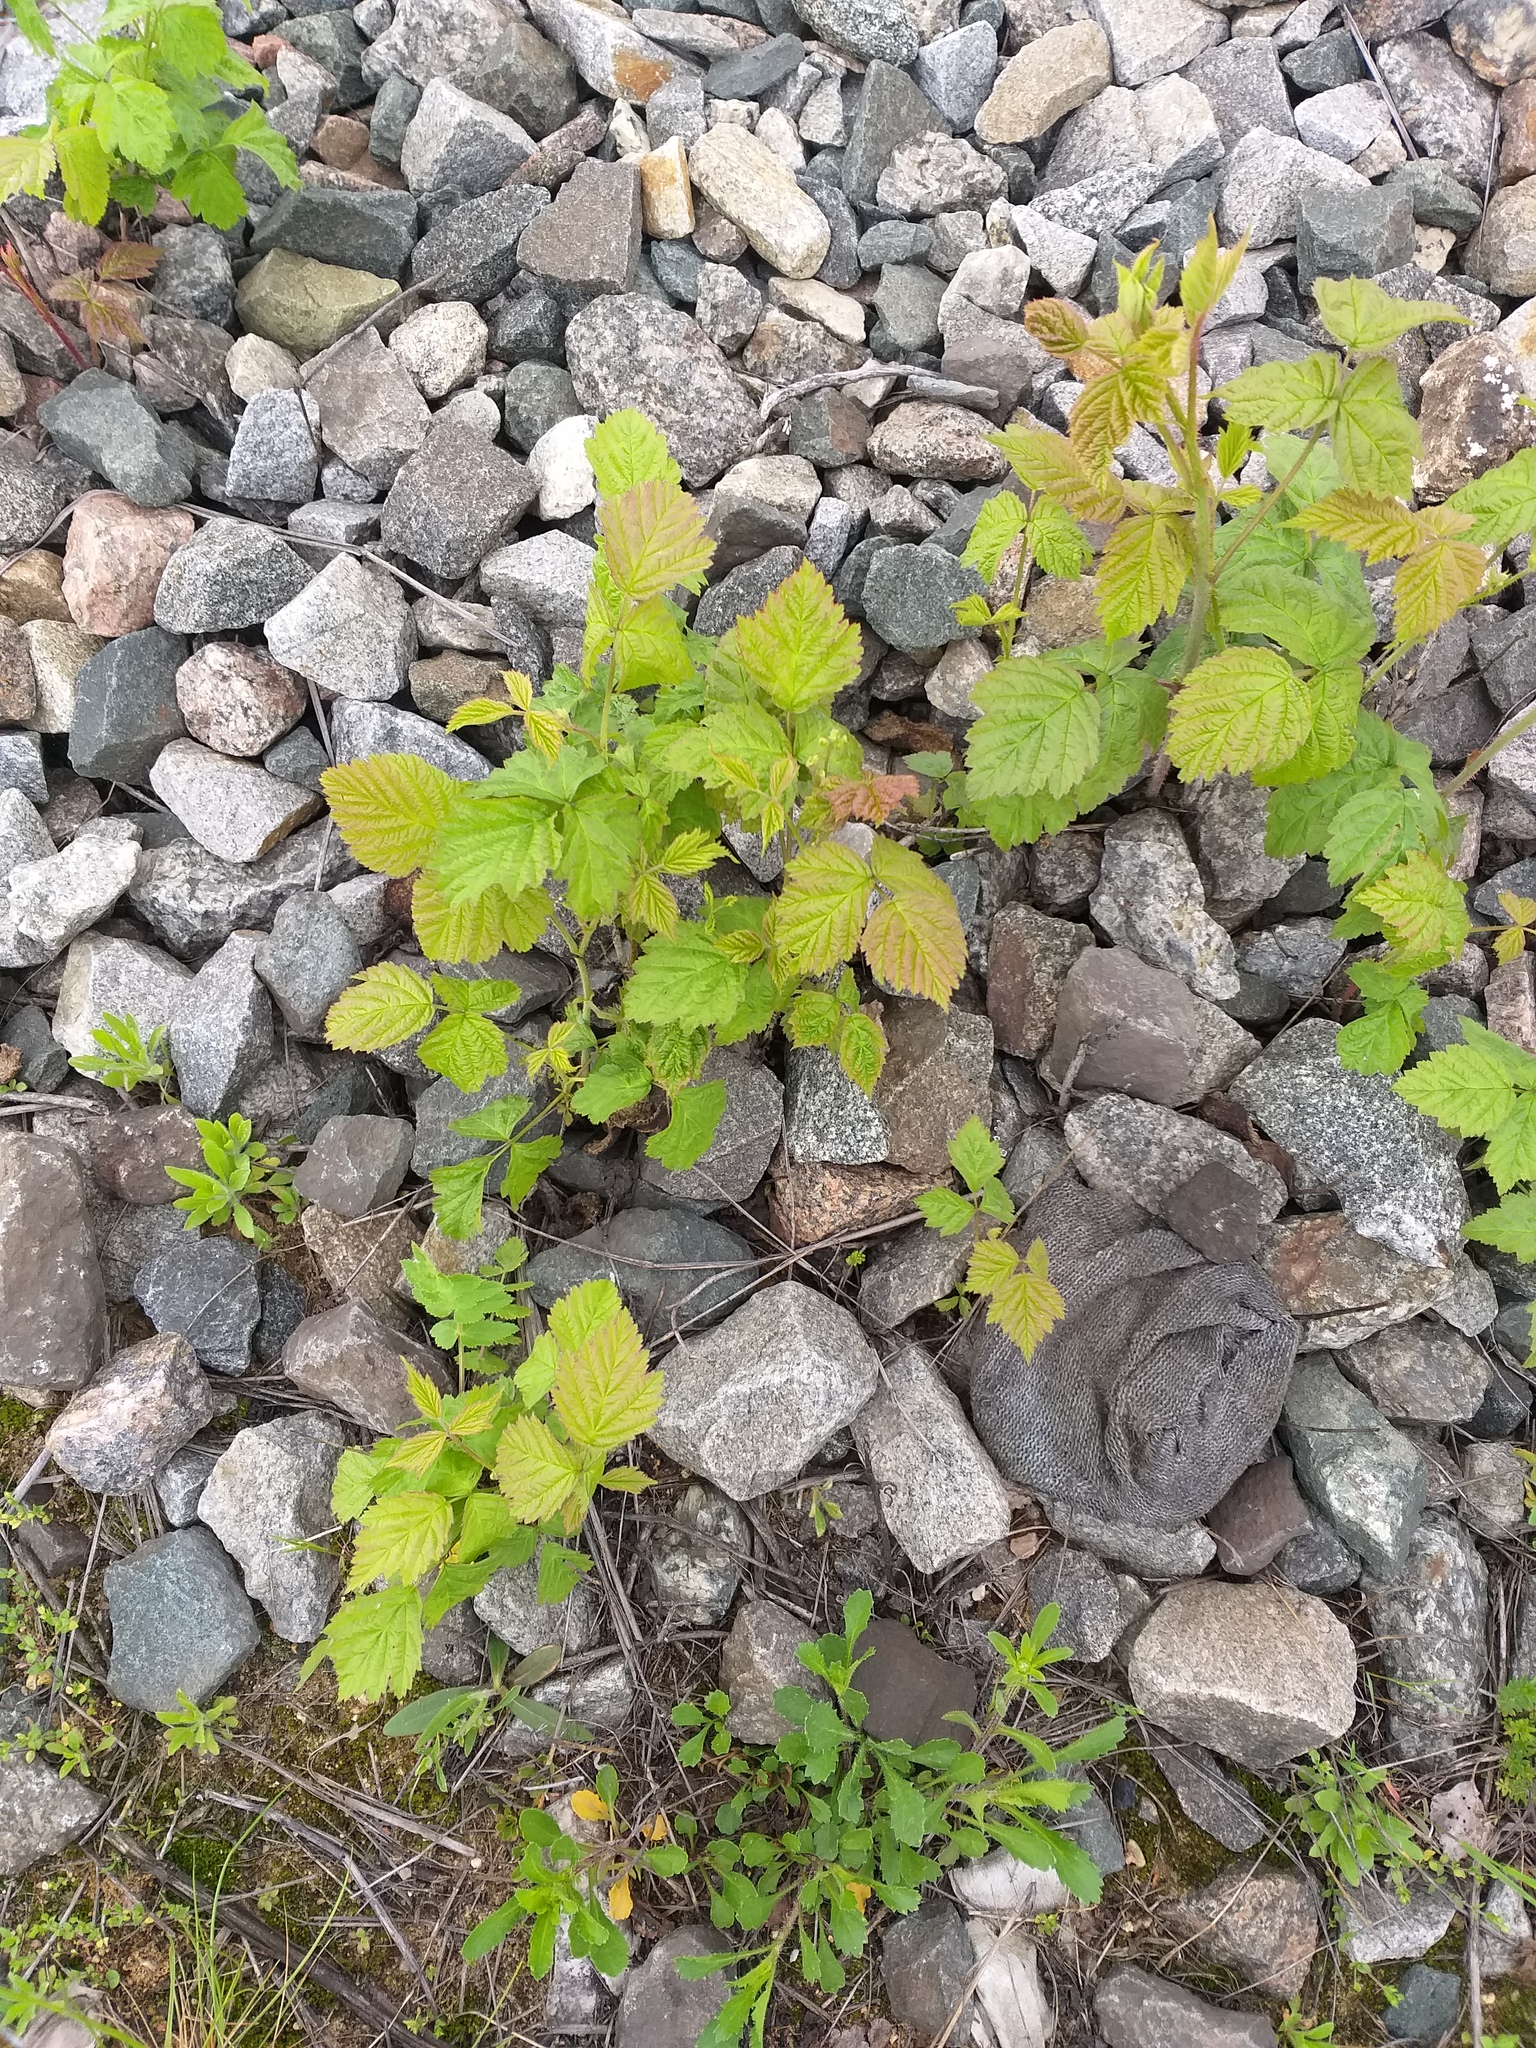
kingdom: Plantae
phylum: Tracheophyta
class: Magnoliopsida
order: Rosales
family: Rosaceae
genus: Rubus
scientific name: Rubus caesius
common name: Dewberry
